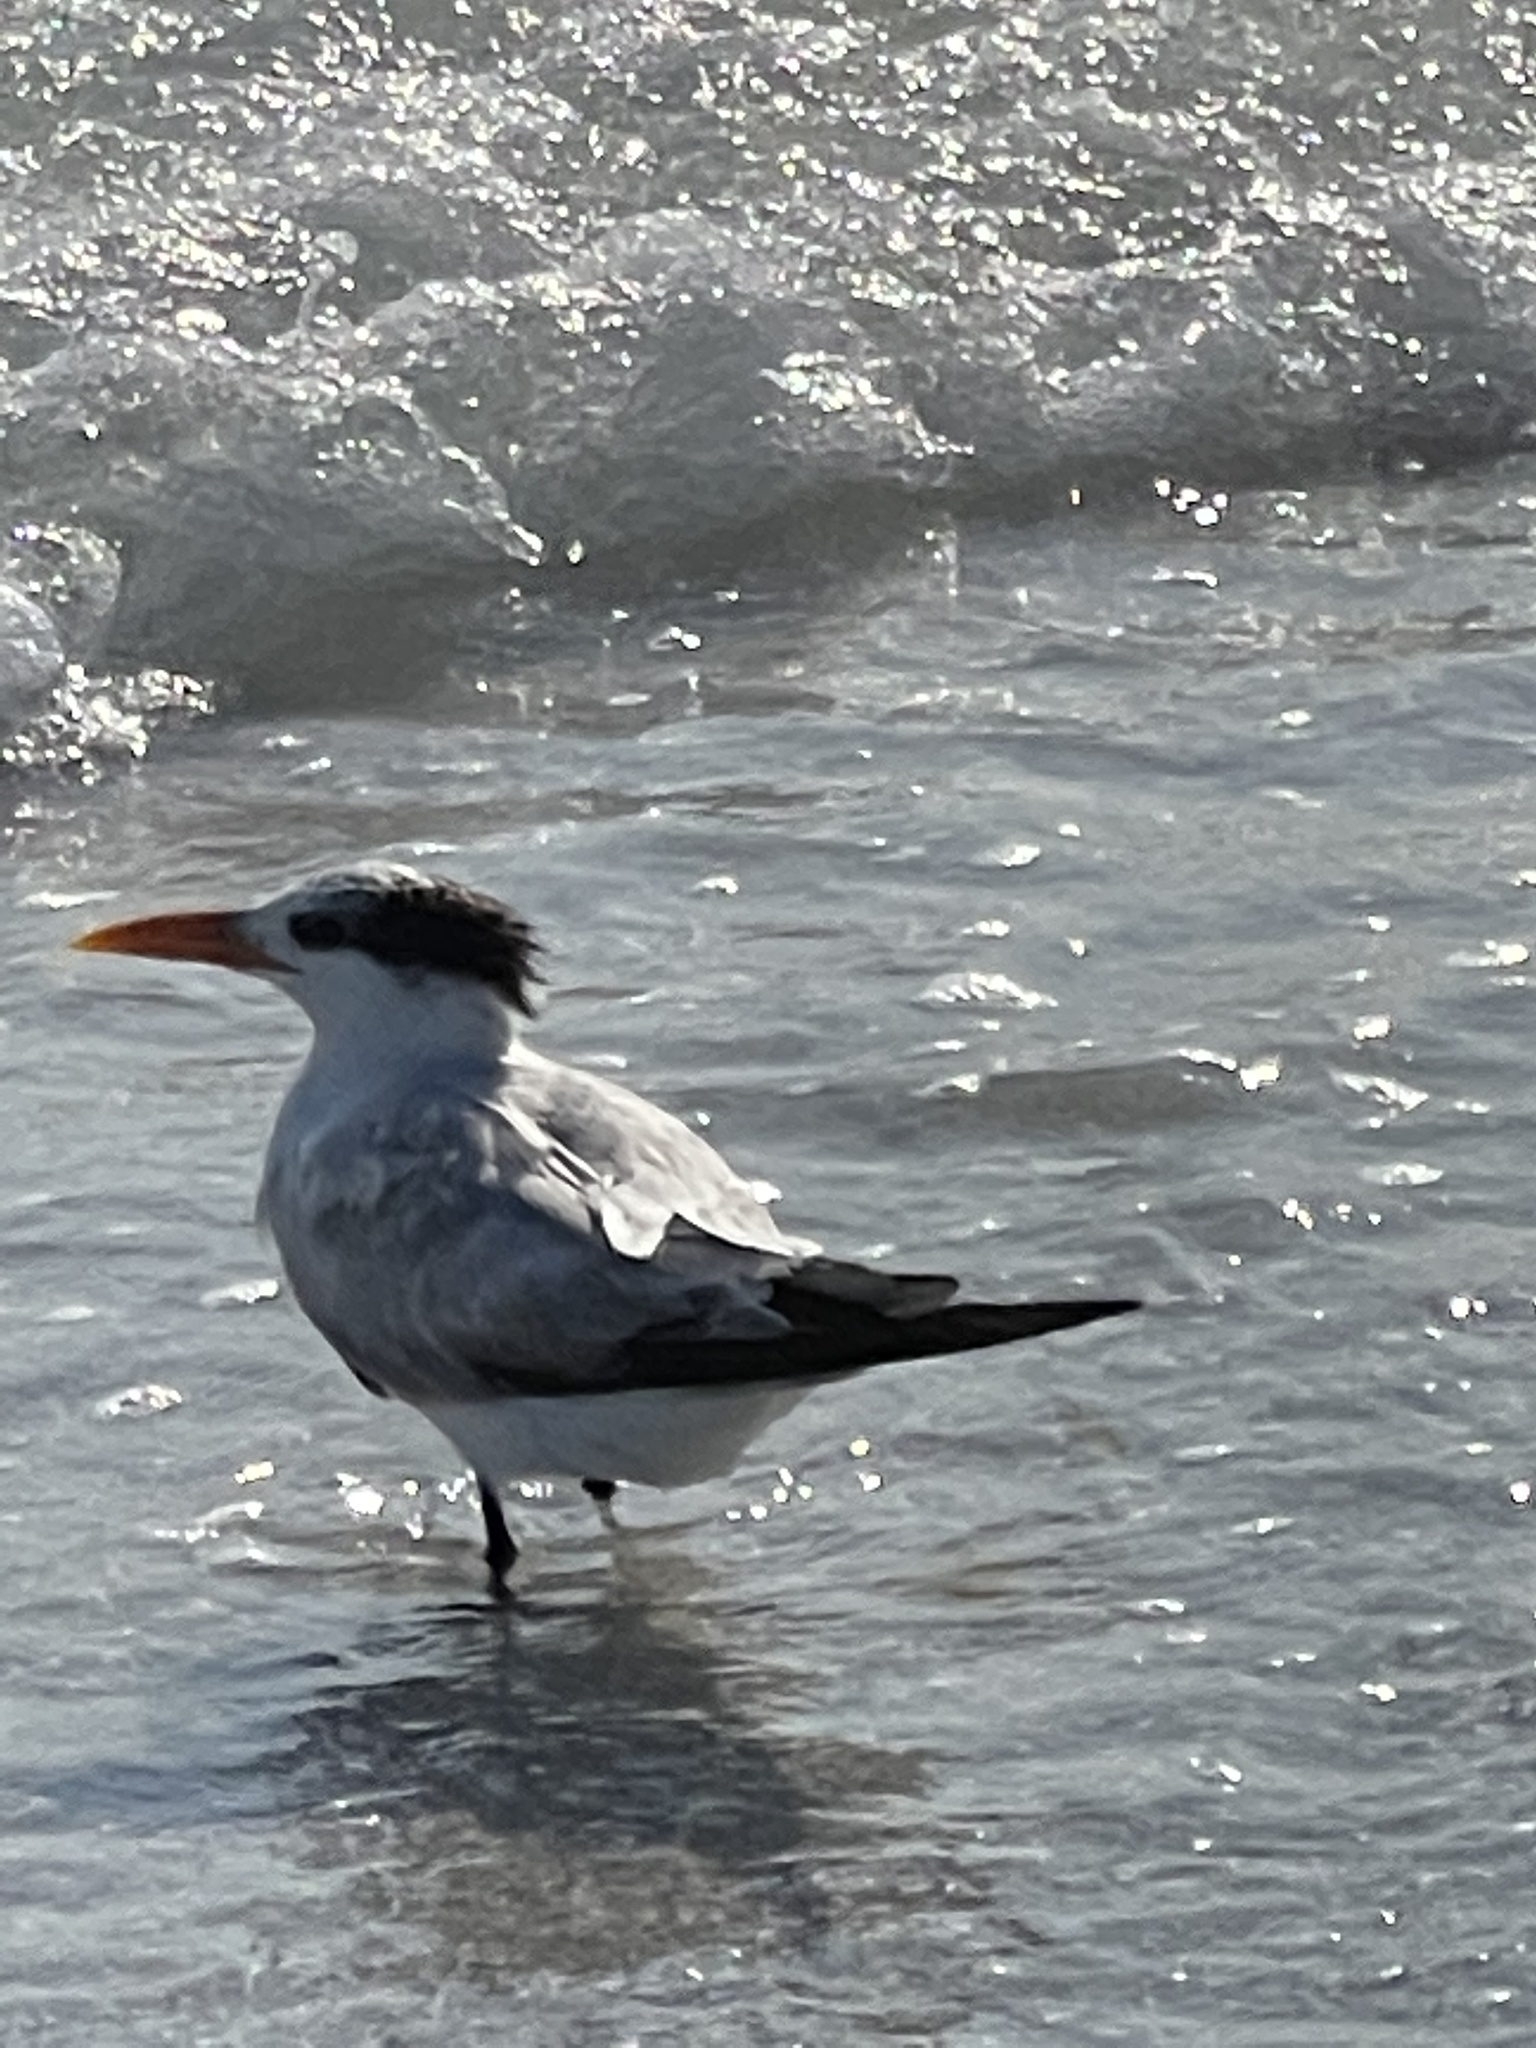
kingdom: Animalia
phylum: Chordata
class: Aves
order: Charadriiformes
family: Laridae
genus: Thalasseus
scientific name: Thalasseus maximus
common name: Royal tern
